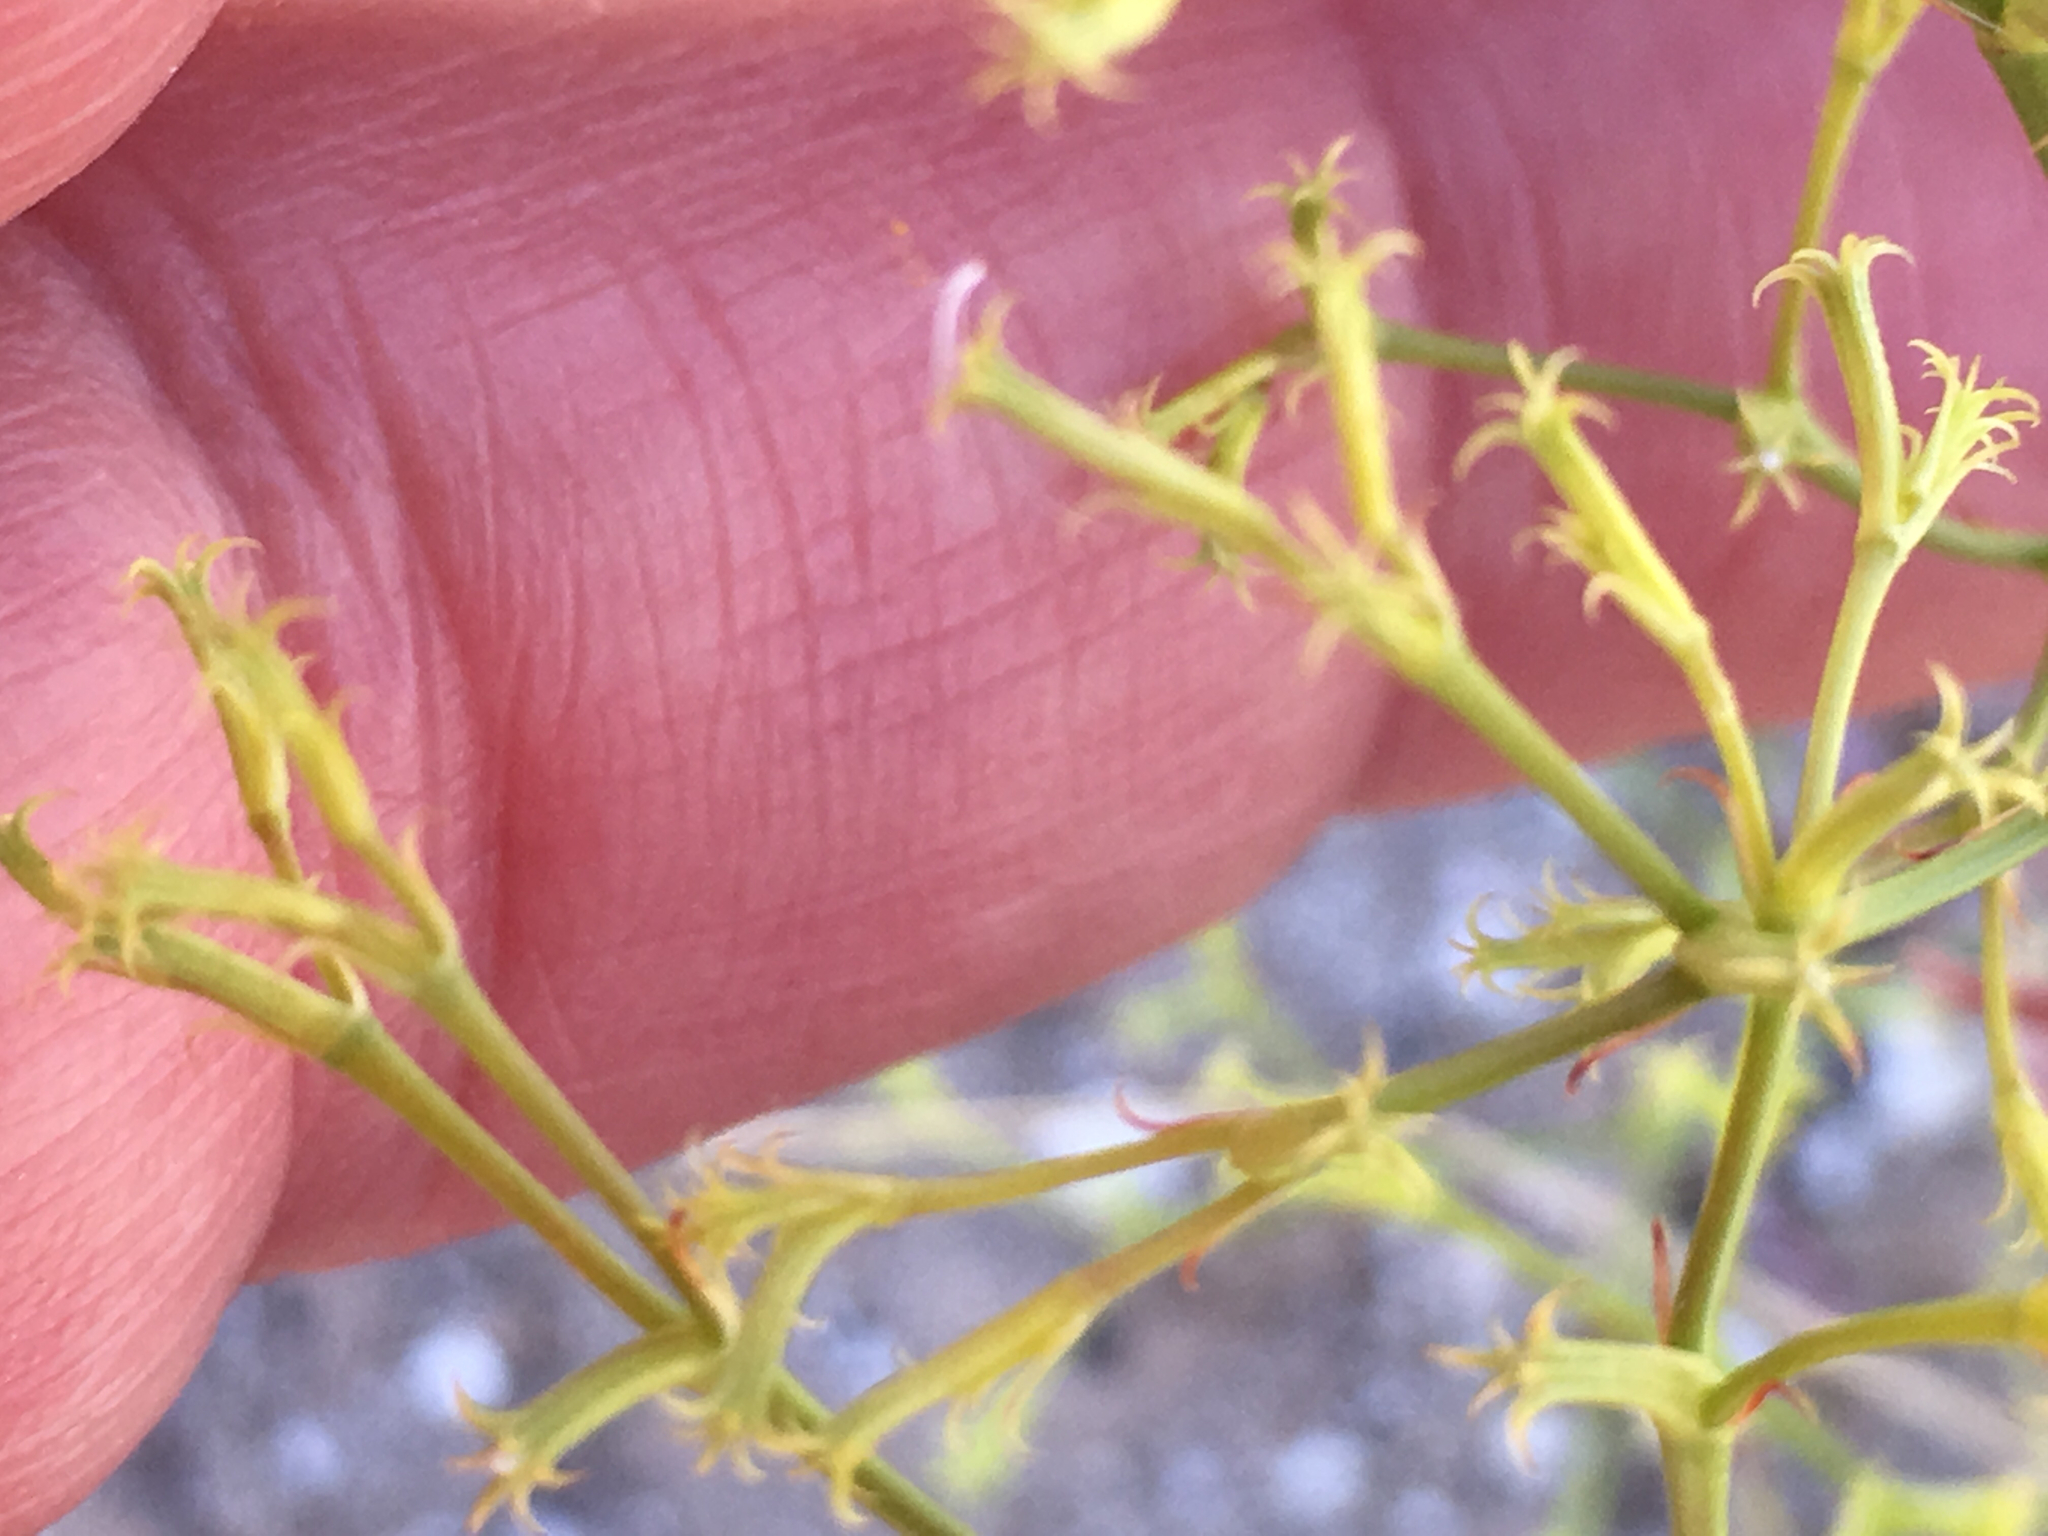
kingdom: Plantae
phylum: Tracheophyta
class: Magnoliopsida
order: Caryophyllales
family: Polygonaceae
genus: Chorizanthe
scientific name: Chorizanthe brevicornu
